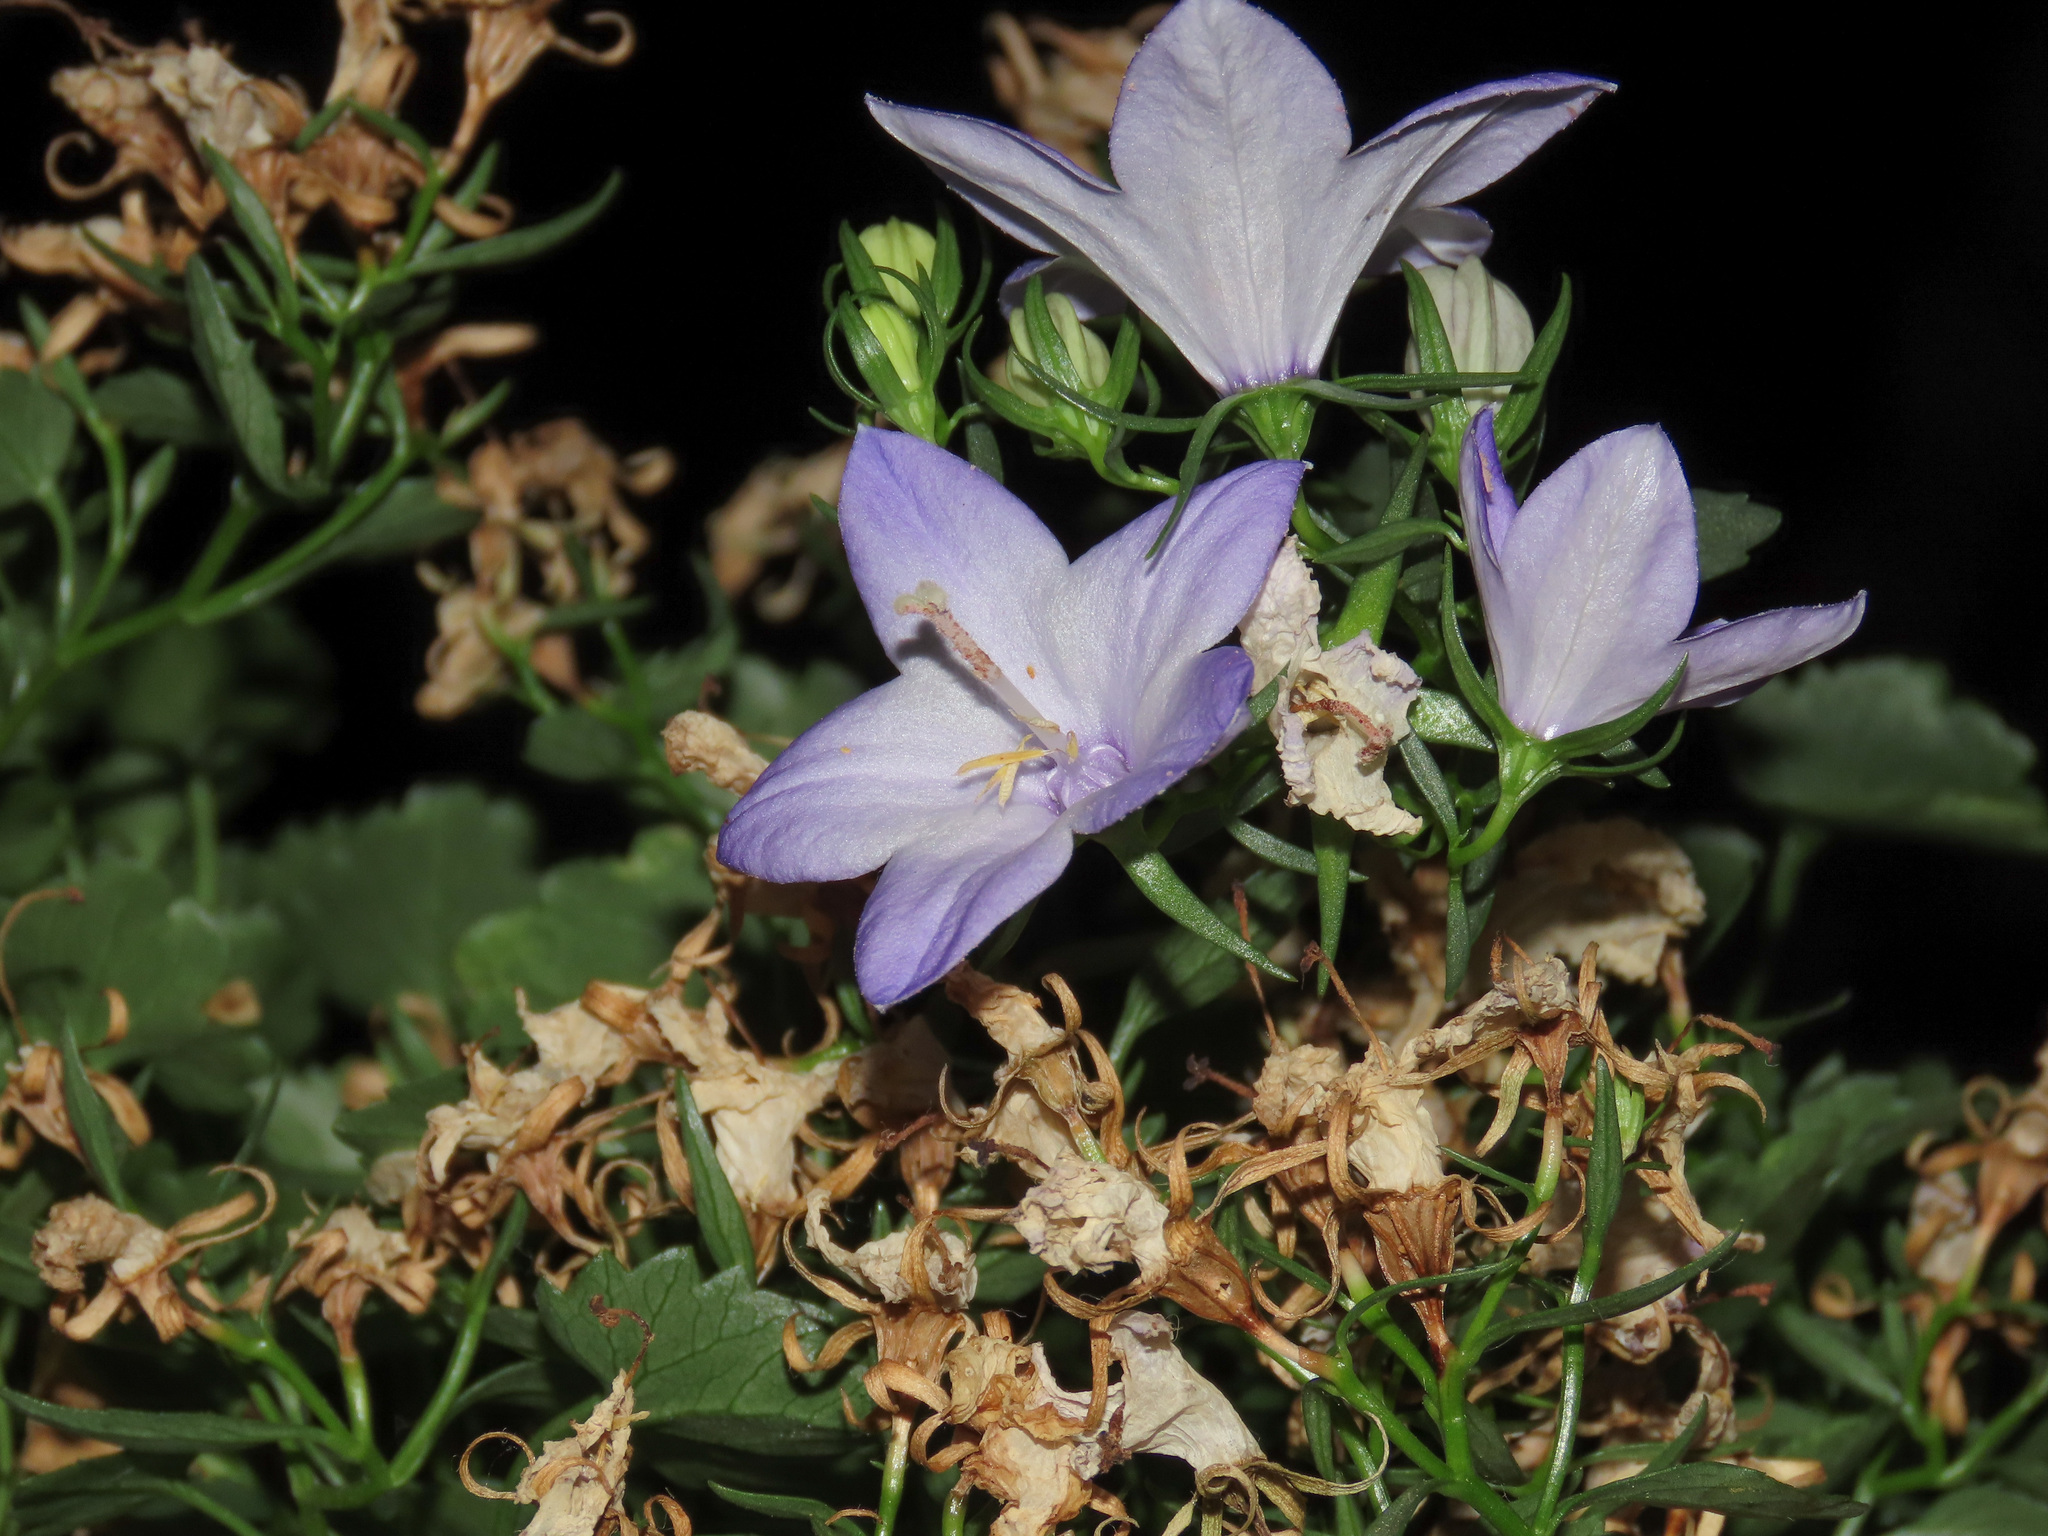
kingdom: Plantae
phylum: Tracheophyta
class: Magnoliopsida
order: Asterales
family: Campanulaceae
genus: Campanula
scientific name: Campanula fragilis
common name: Italian bellflower
